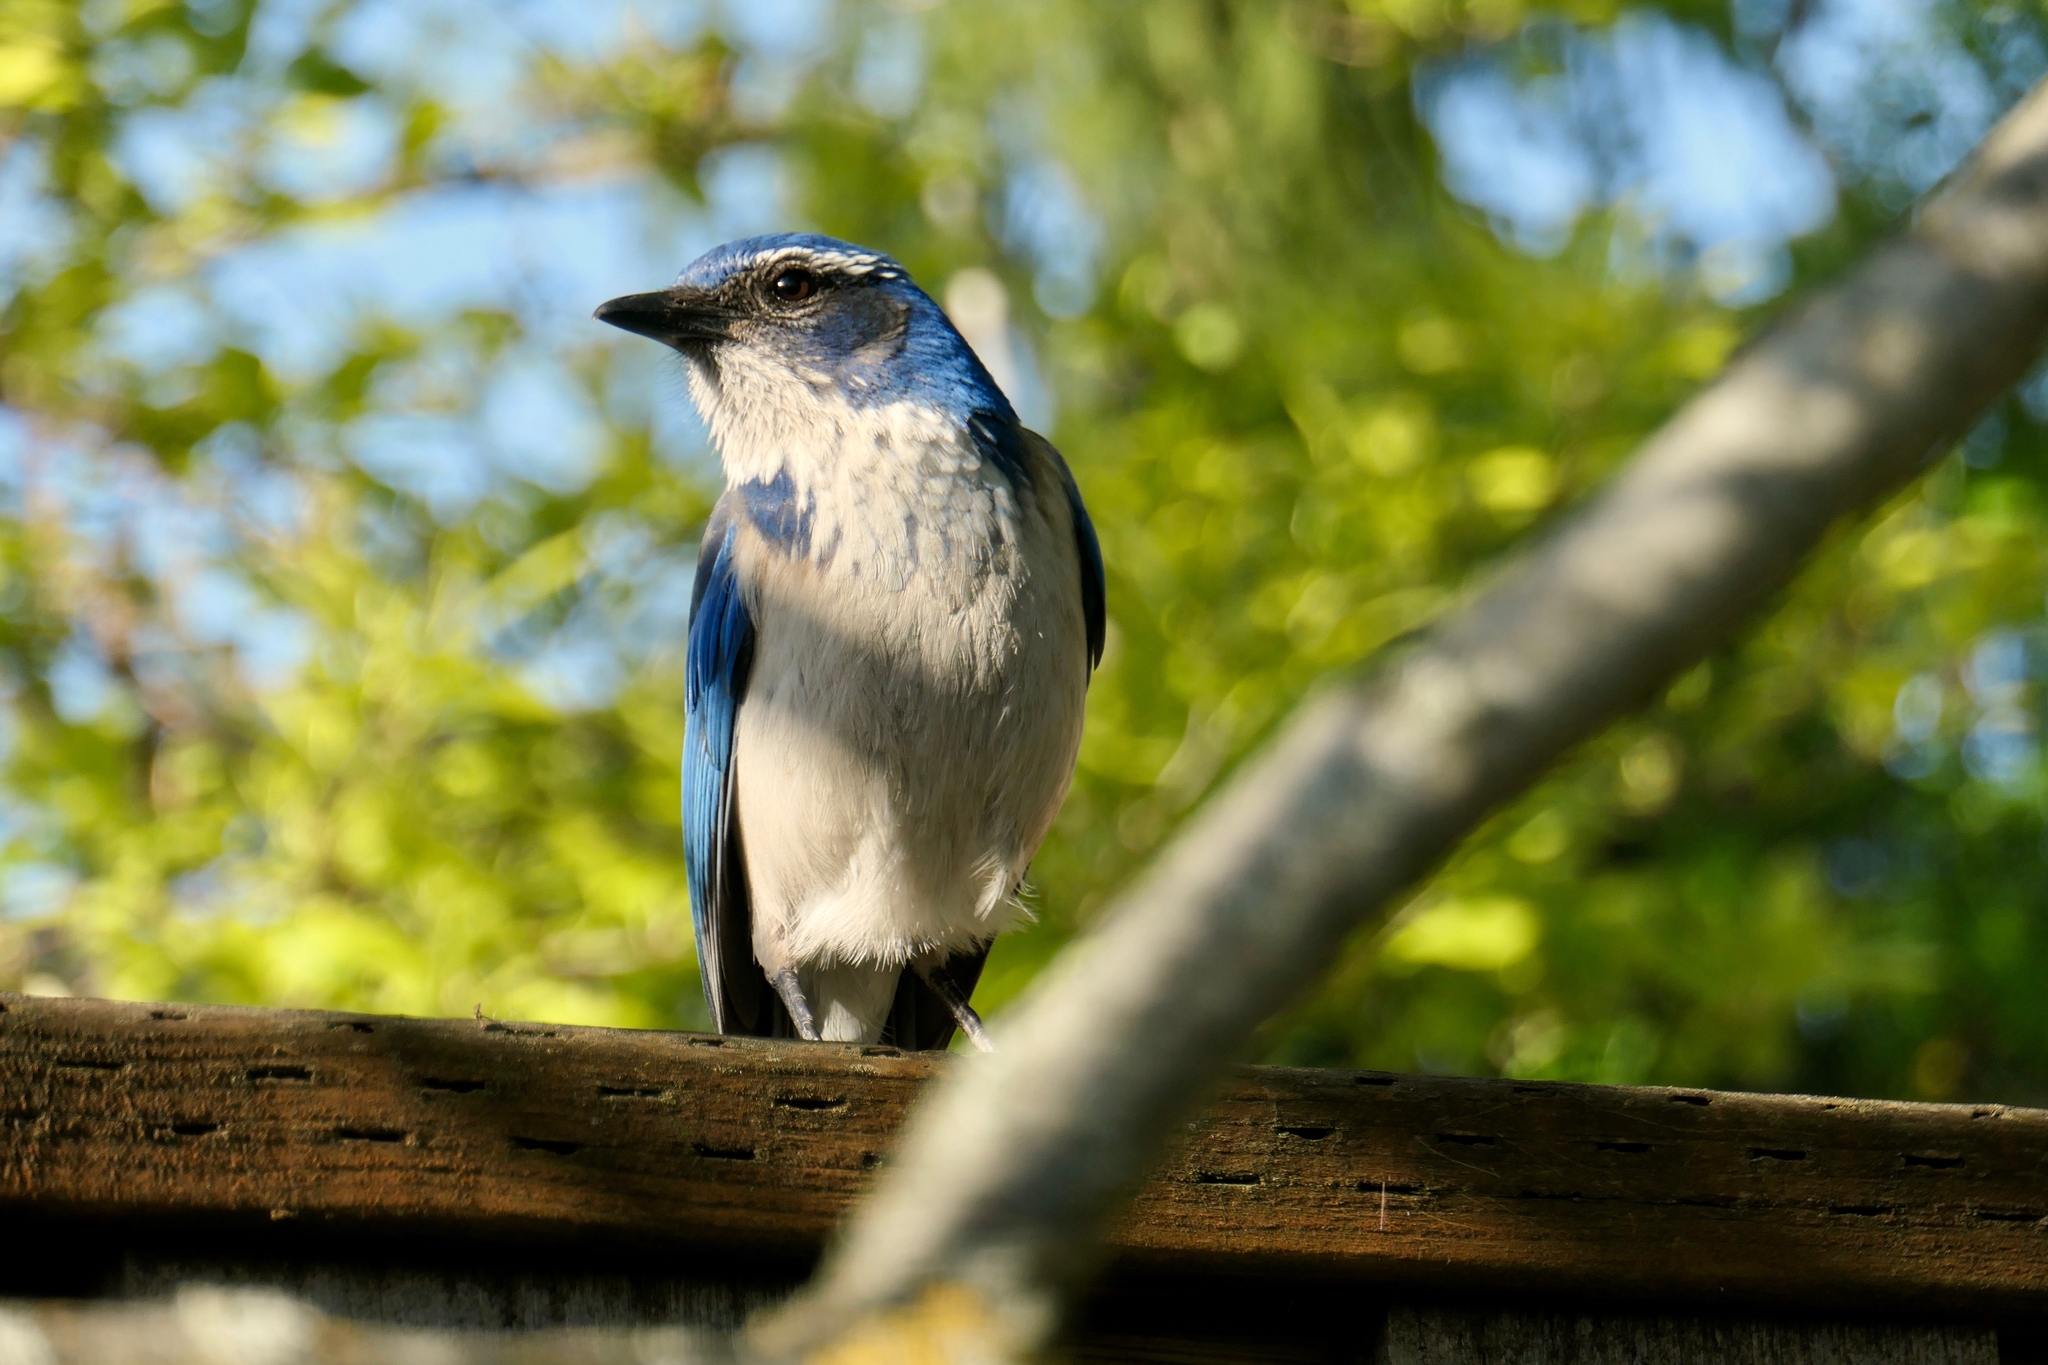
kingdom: Animalia
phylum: Chordata
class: Aves
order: Passeriformes
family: Corvidae
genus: Aphelocoma
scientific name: Aphelocoma californica
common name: California scrub-jay
